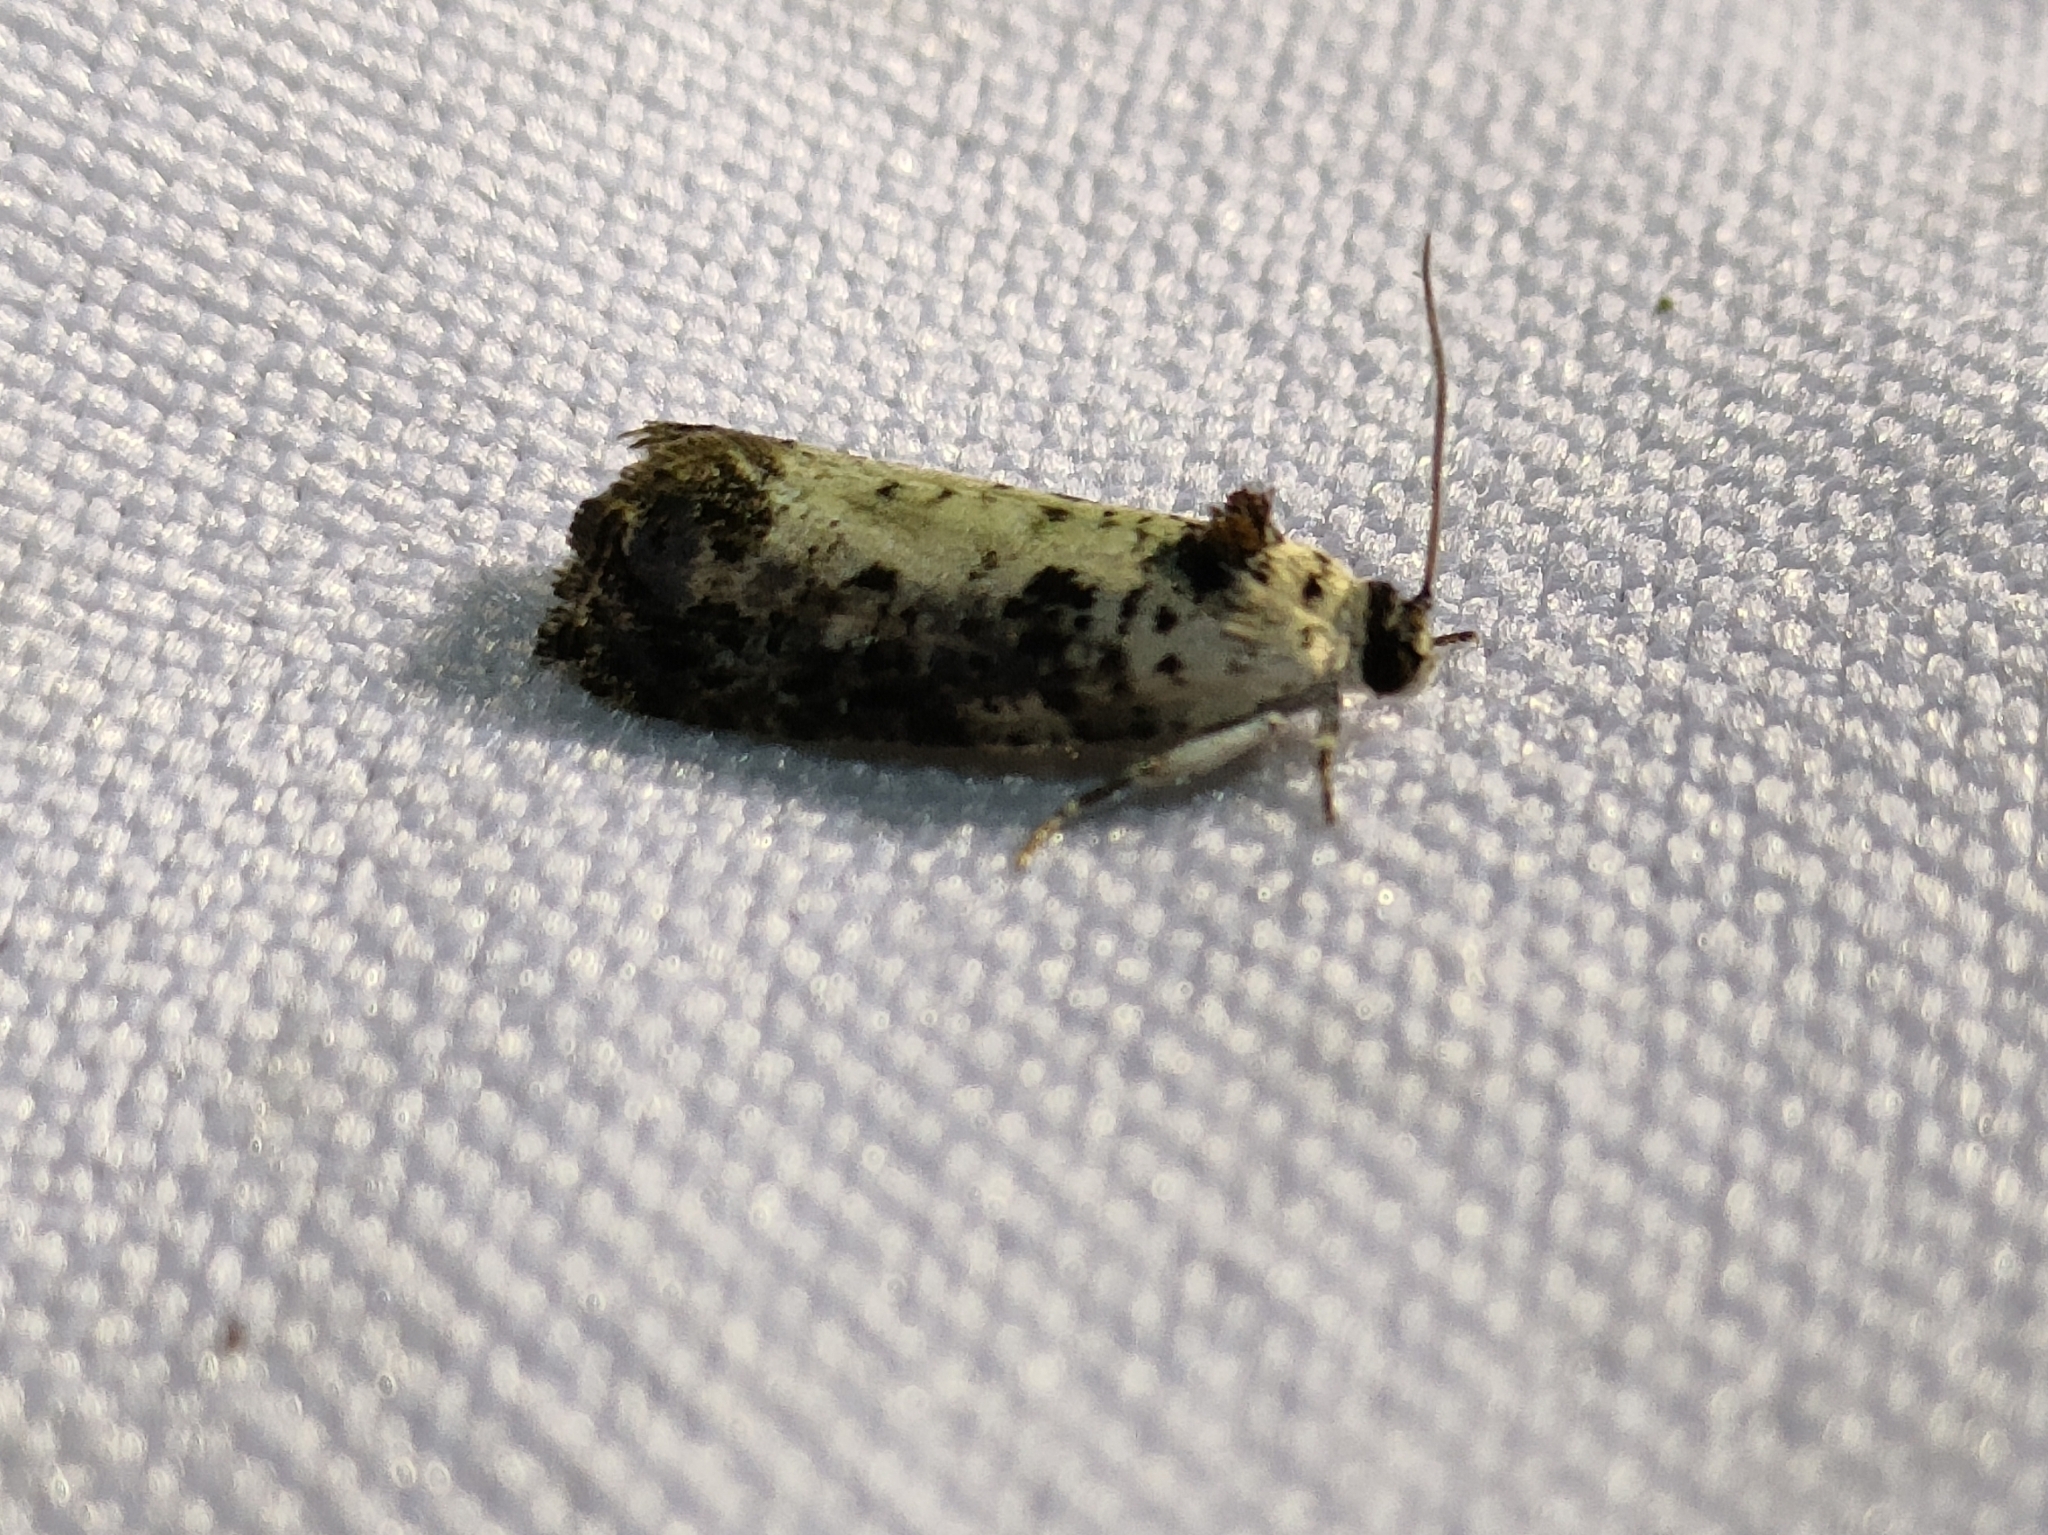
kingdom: Animalia
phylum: Arthropoda
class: Insecta
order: Lepidoptera
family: Tortricidae
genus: Hedya
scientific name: Hedya salicella
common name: Large tortricid moth
